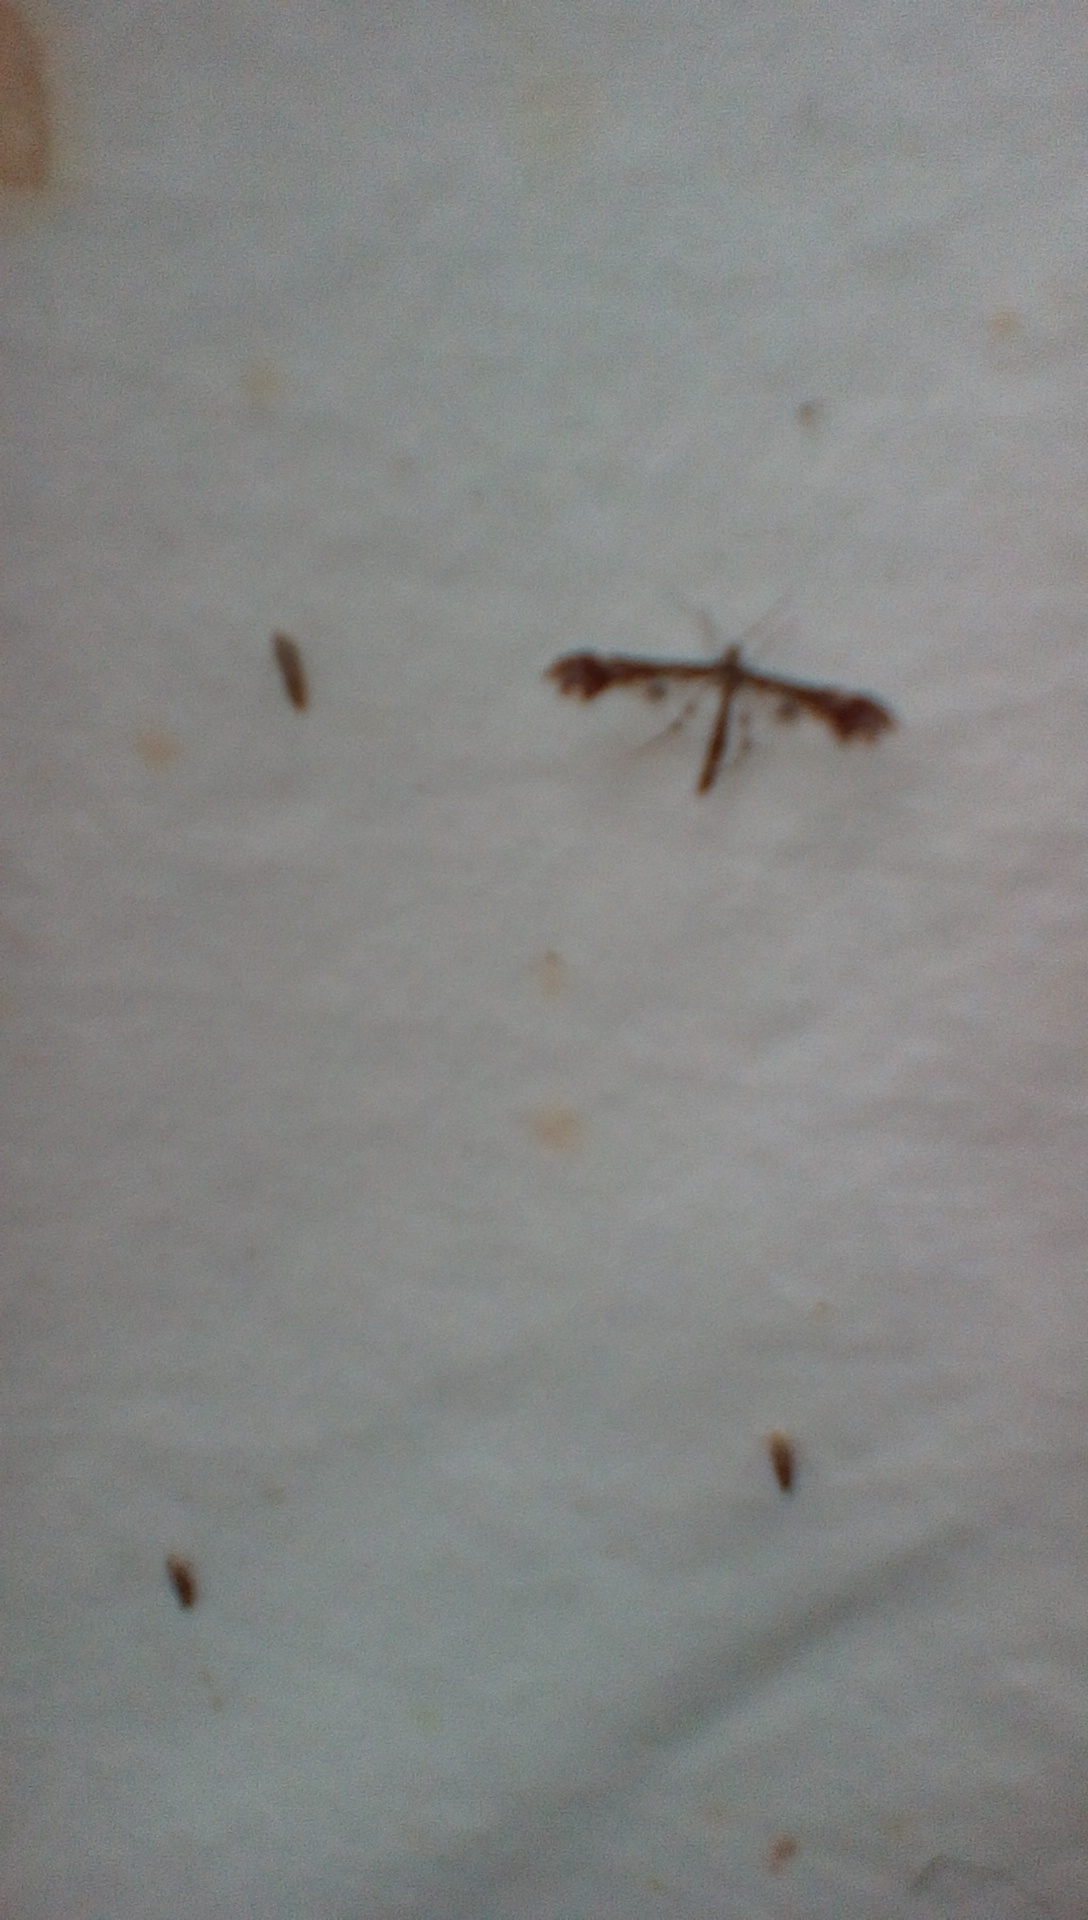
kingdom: Animalia
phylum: Arthropoda
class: Insecta
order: Lepidoptera
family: Pterophoridae
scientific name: Pterophoridae
